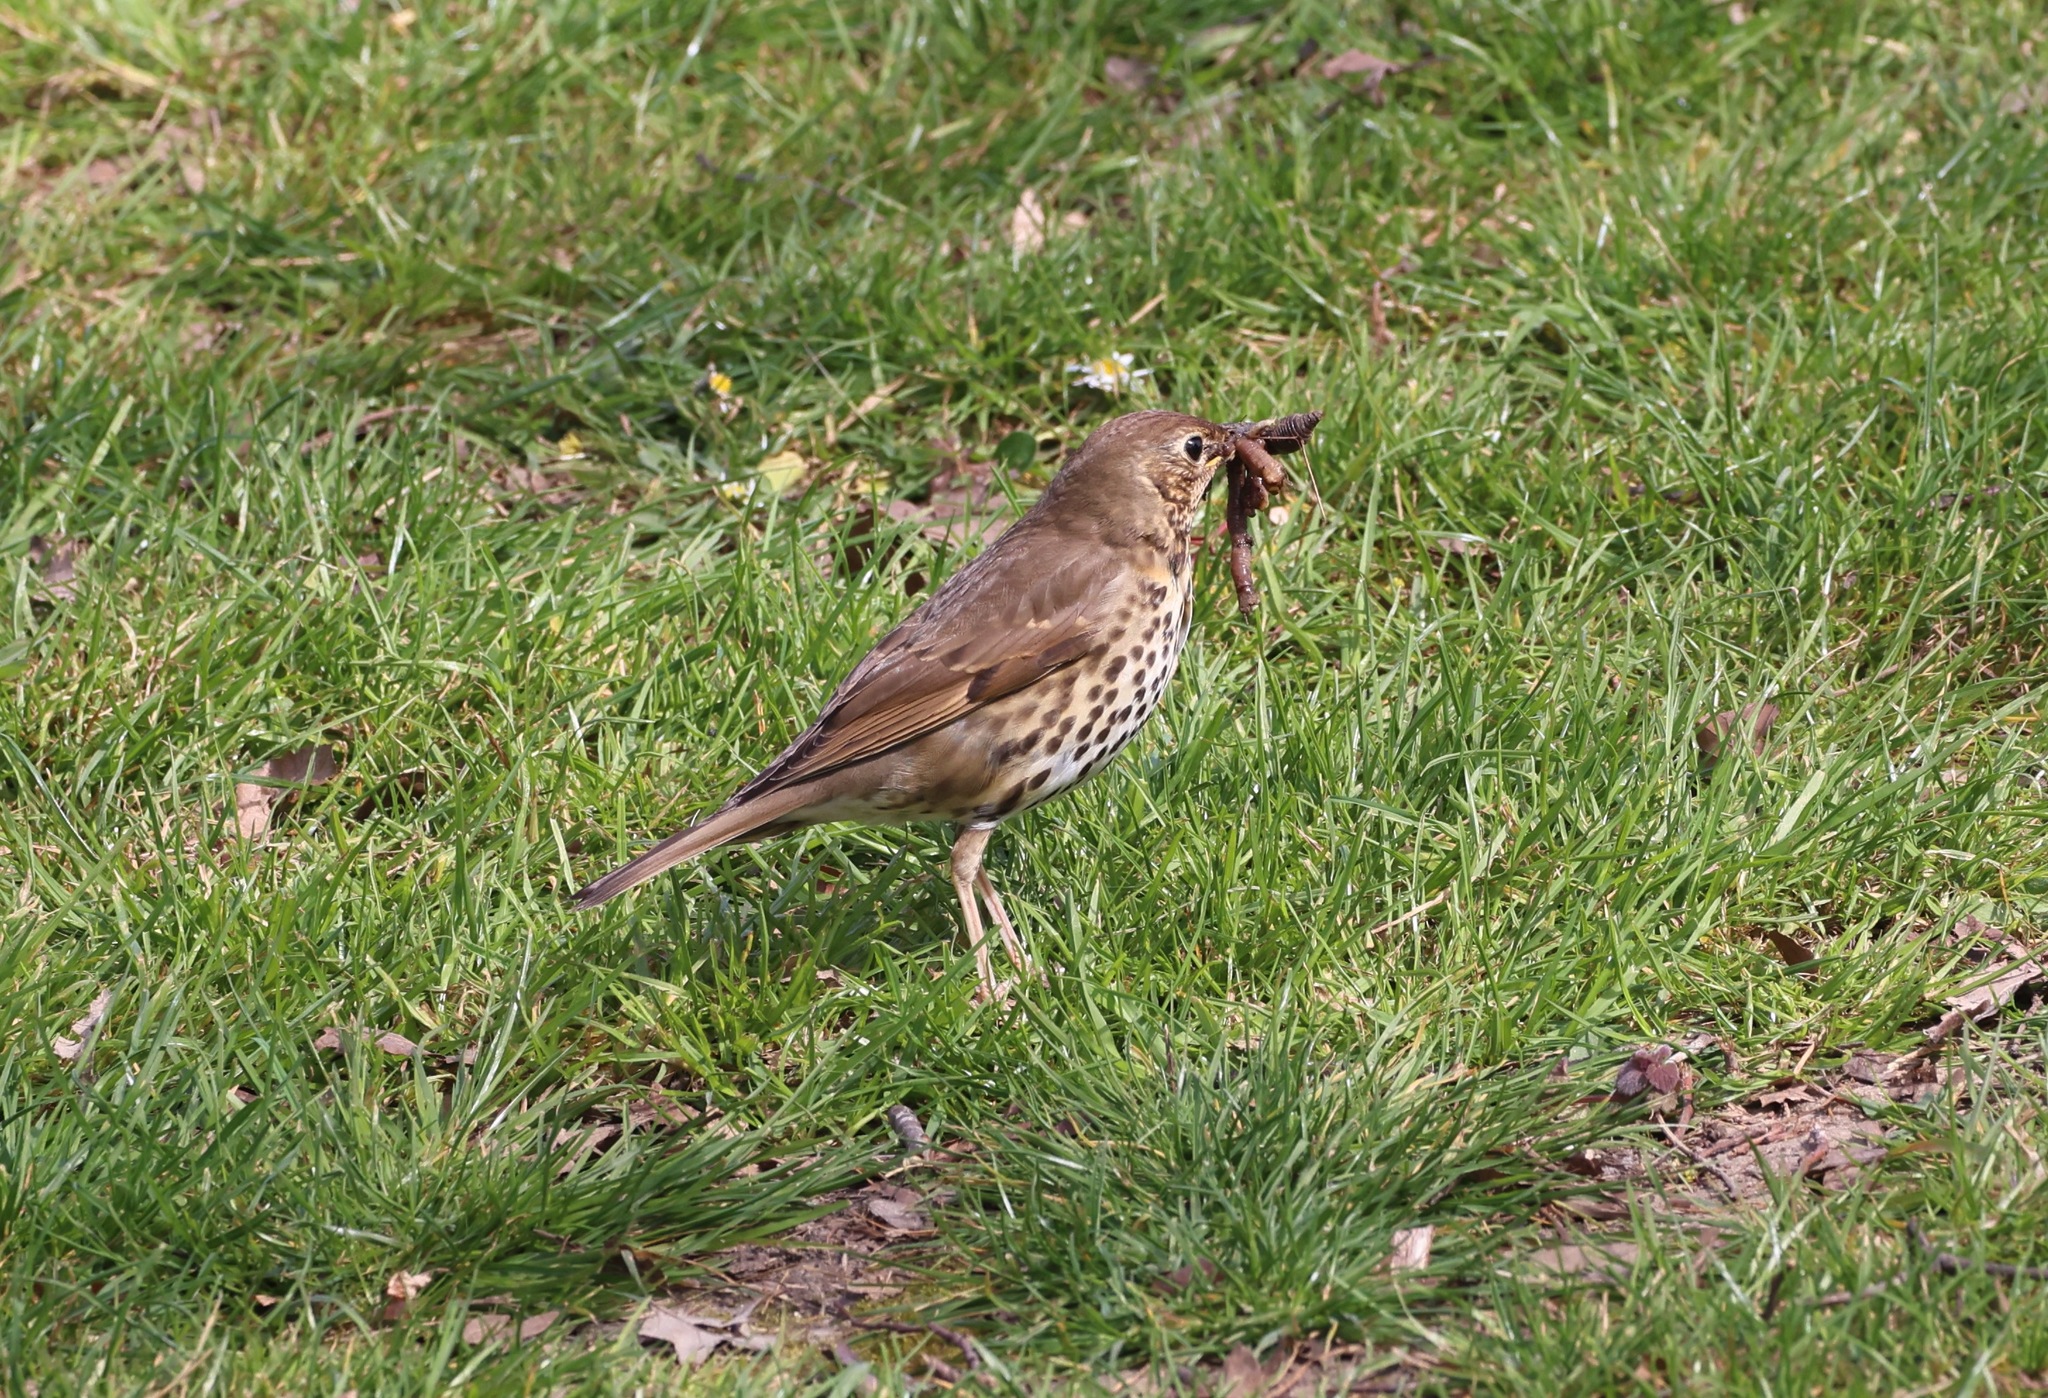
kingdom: Animalia
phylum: Chordata
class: Aves
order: Passeriformes
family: Turdidae
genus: Turdus
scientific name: Turdus philomelos
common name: Song thrush
